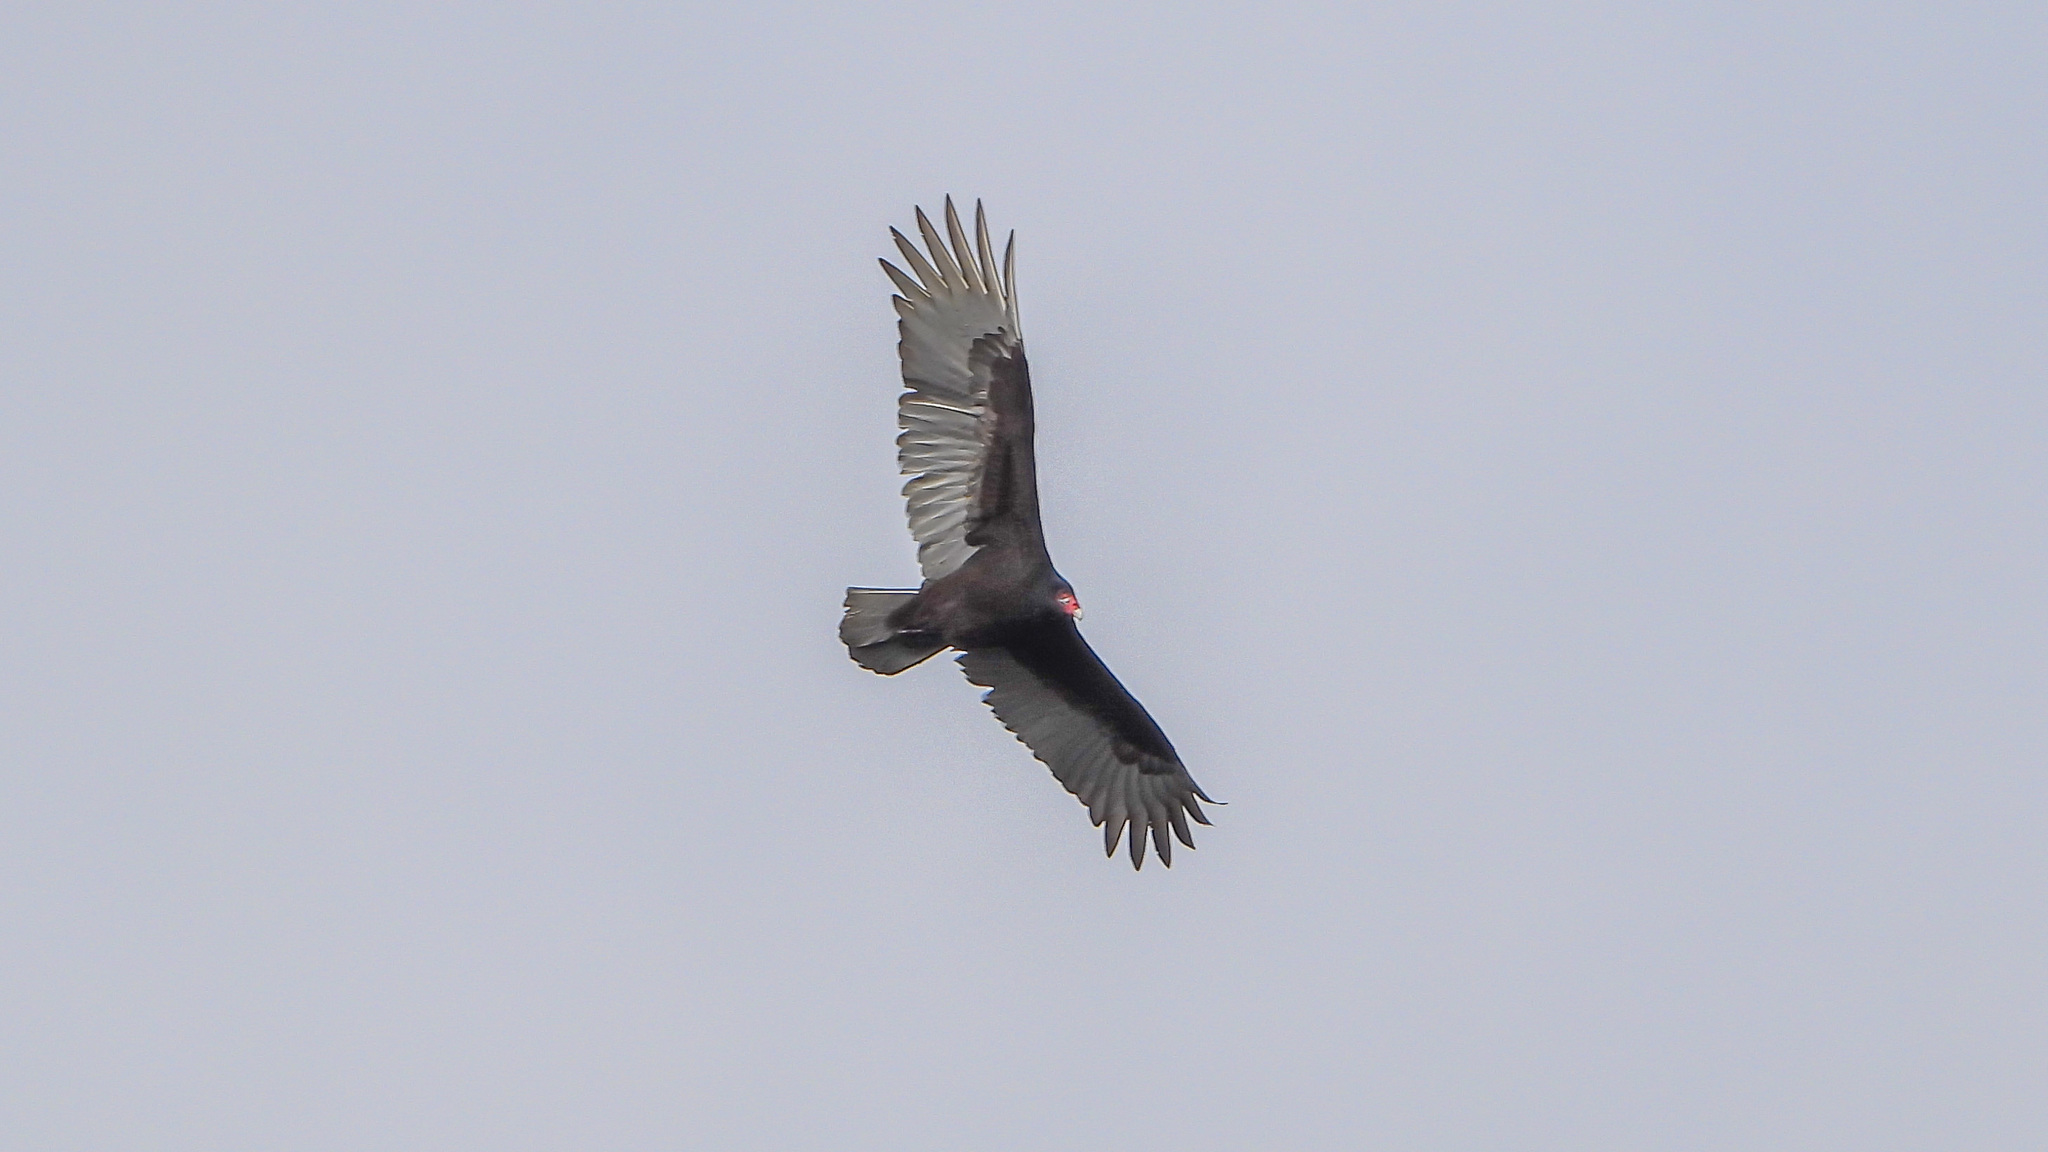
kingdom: Animalia
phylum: Chordata
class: Aves
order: Accipitriformes
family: Cathartidae
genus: Cathartes
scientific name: Cathartes aura
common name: Turkey vulture
